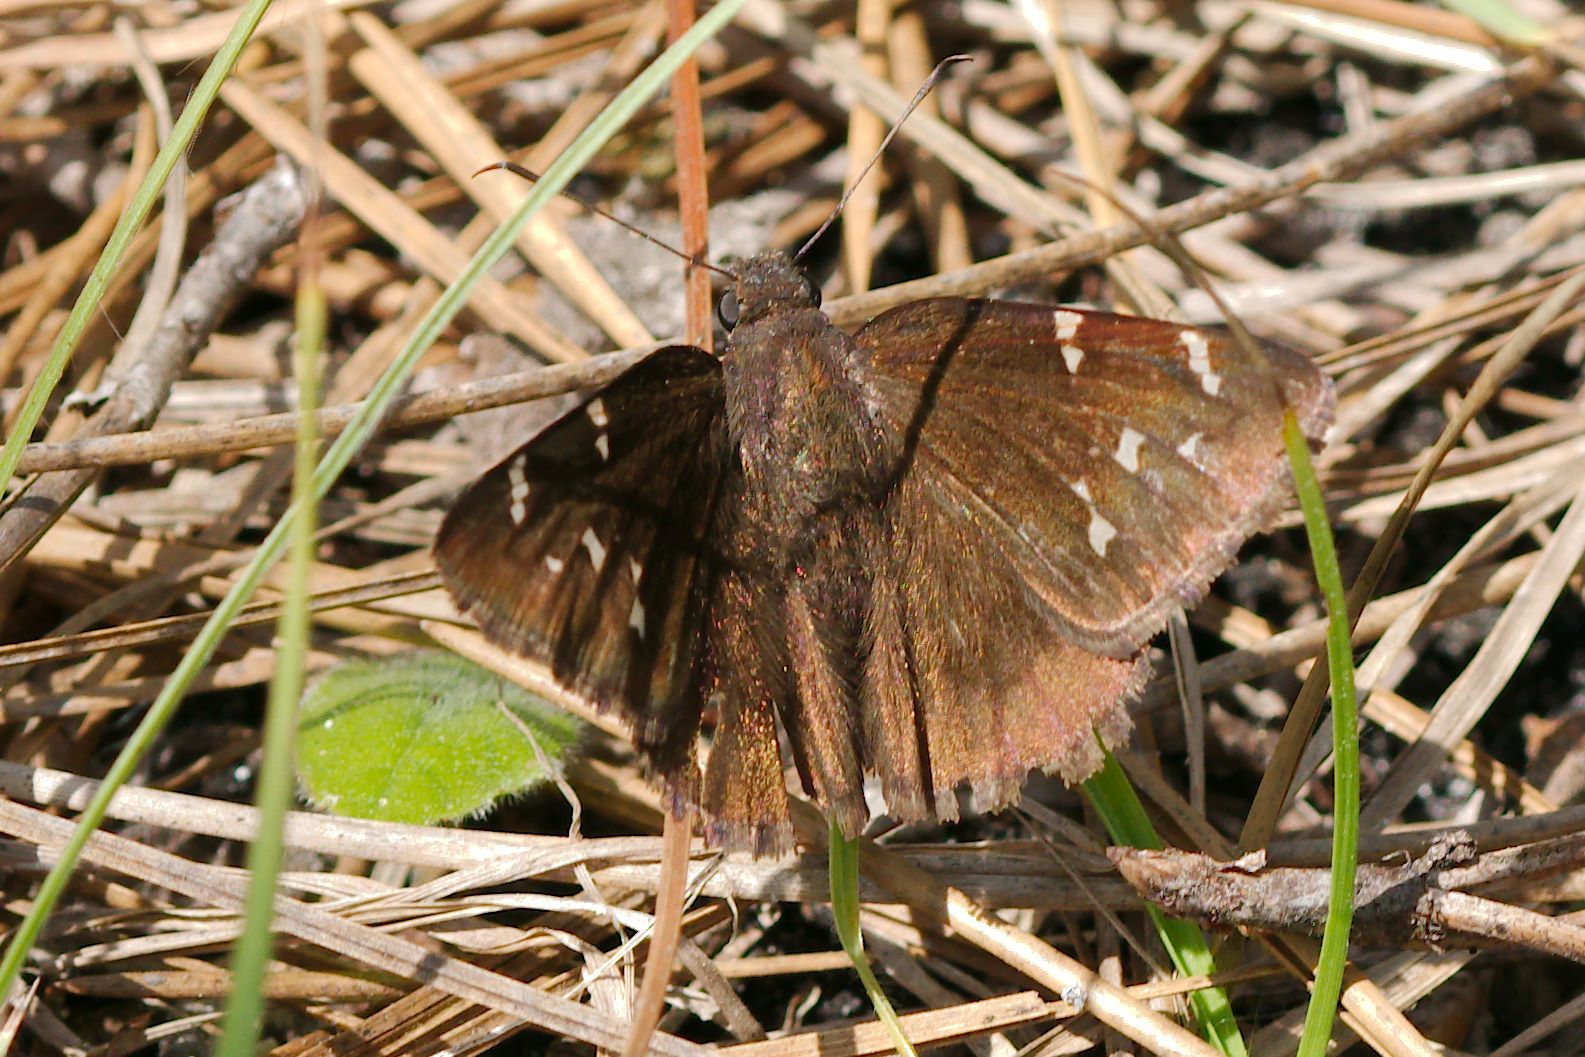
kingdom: Animalia
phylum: Arthropoda
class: Insecta
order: Lepidoptera
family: Hesperiidae
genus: Thorybes
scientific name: Thorybes pylades
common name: Northern cloudywing
